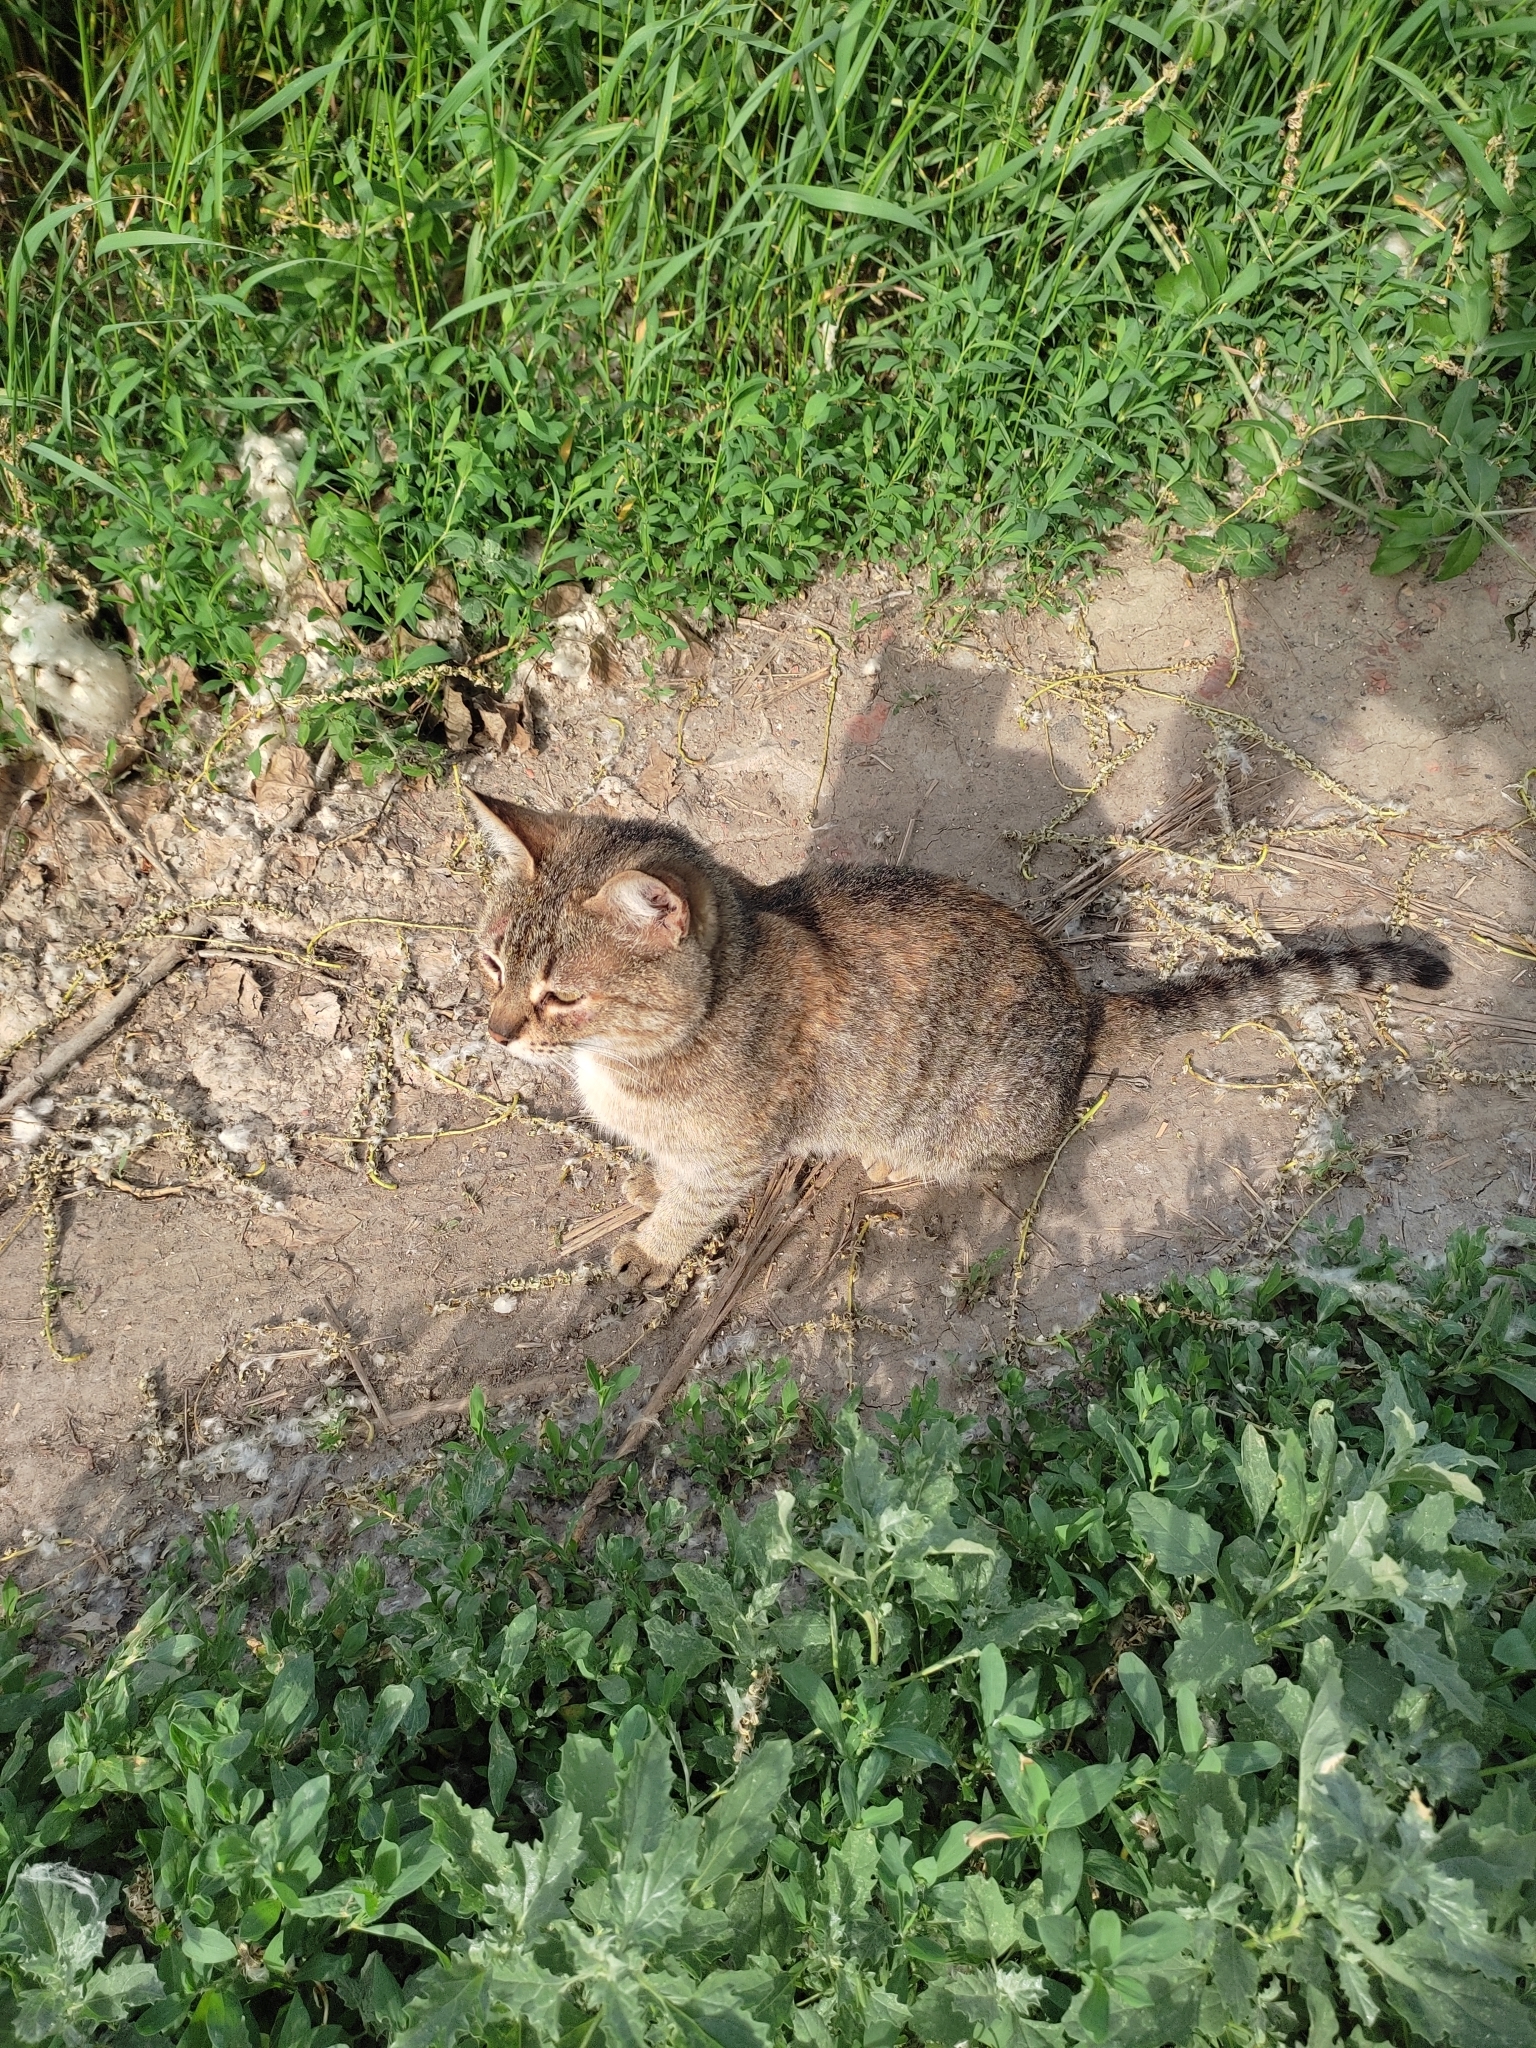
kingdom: Animalia
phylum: Chordata
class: Mammalia
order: Carnivora
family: Felidae
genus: Felis
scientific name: Felis catus
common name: Domestic cat
